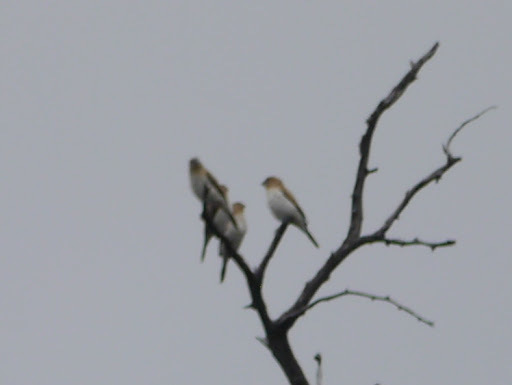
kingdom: Animalia
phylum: Chordata
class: Aves
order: Passeriformes
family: Estrildidae
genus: Euodice
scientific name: Euodice cantans
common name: African silverbill
